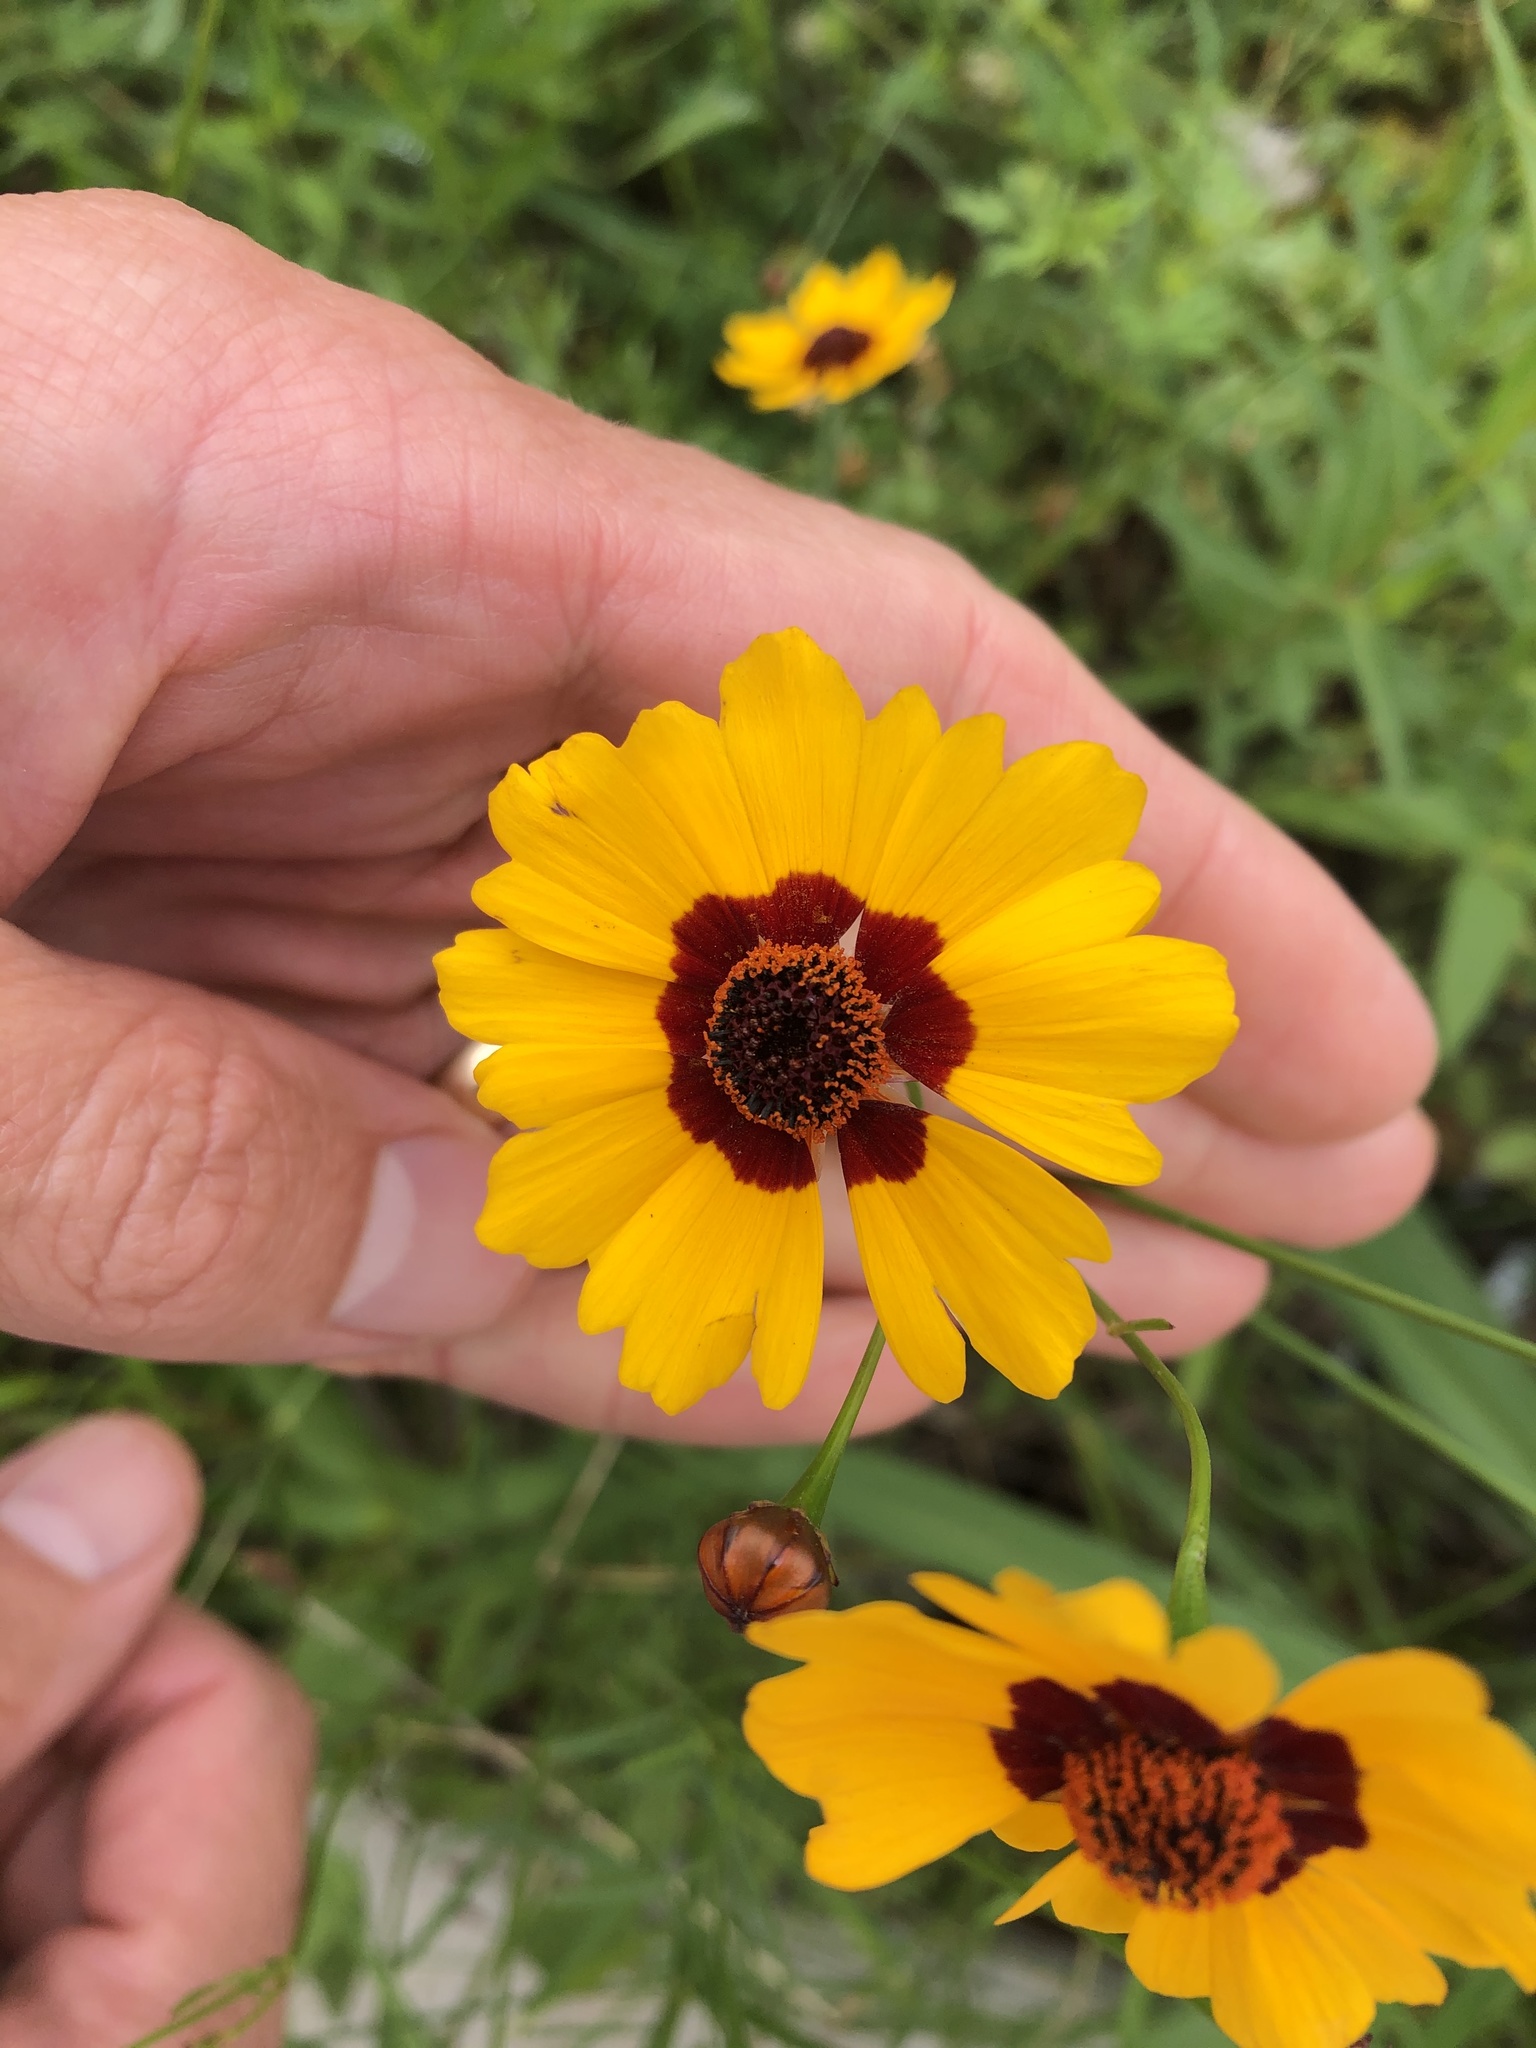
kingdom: Plantae
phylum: Tracheophyta
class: Magnoliopsida
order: Asterales
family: Asteraceae
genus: Coreopsis
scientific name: Coreopsis tinctoria
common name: Garden tickseed
